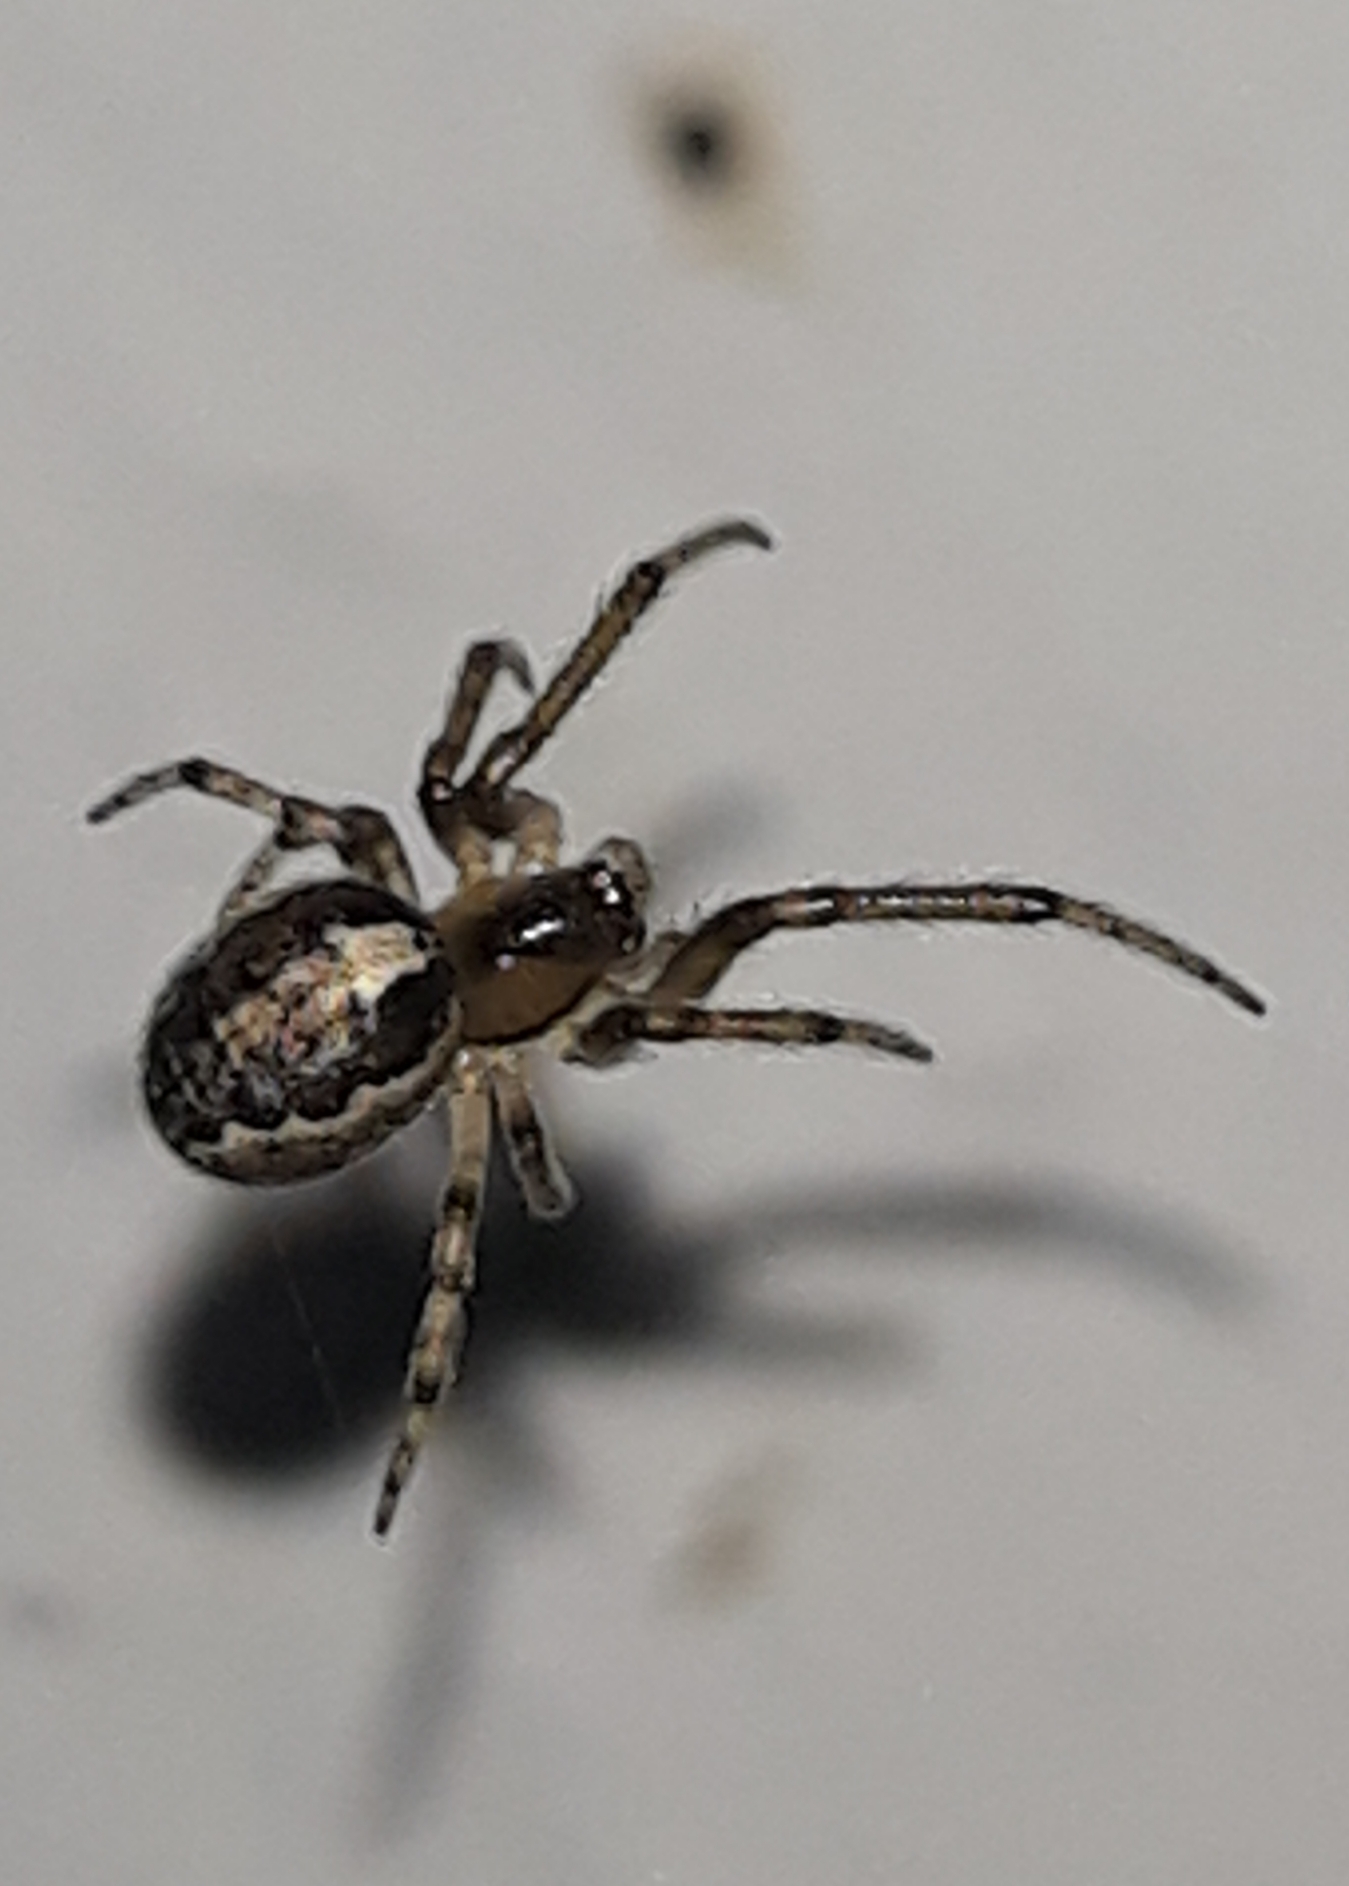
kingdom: Animalia
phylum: Arthropoda
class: Arachnida
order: Araneae
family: Araneidae
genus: Zygiella
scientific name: Zygiella x-notata
